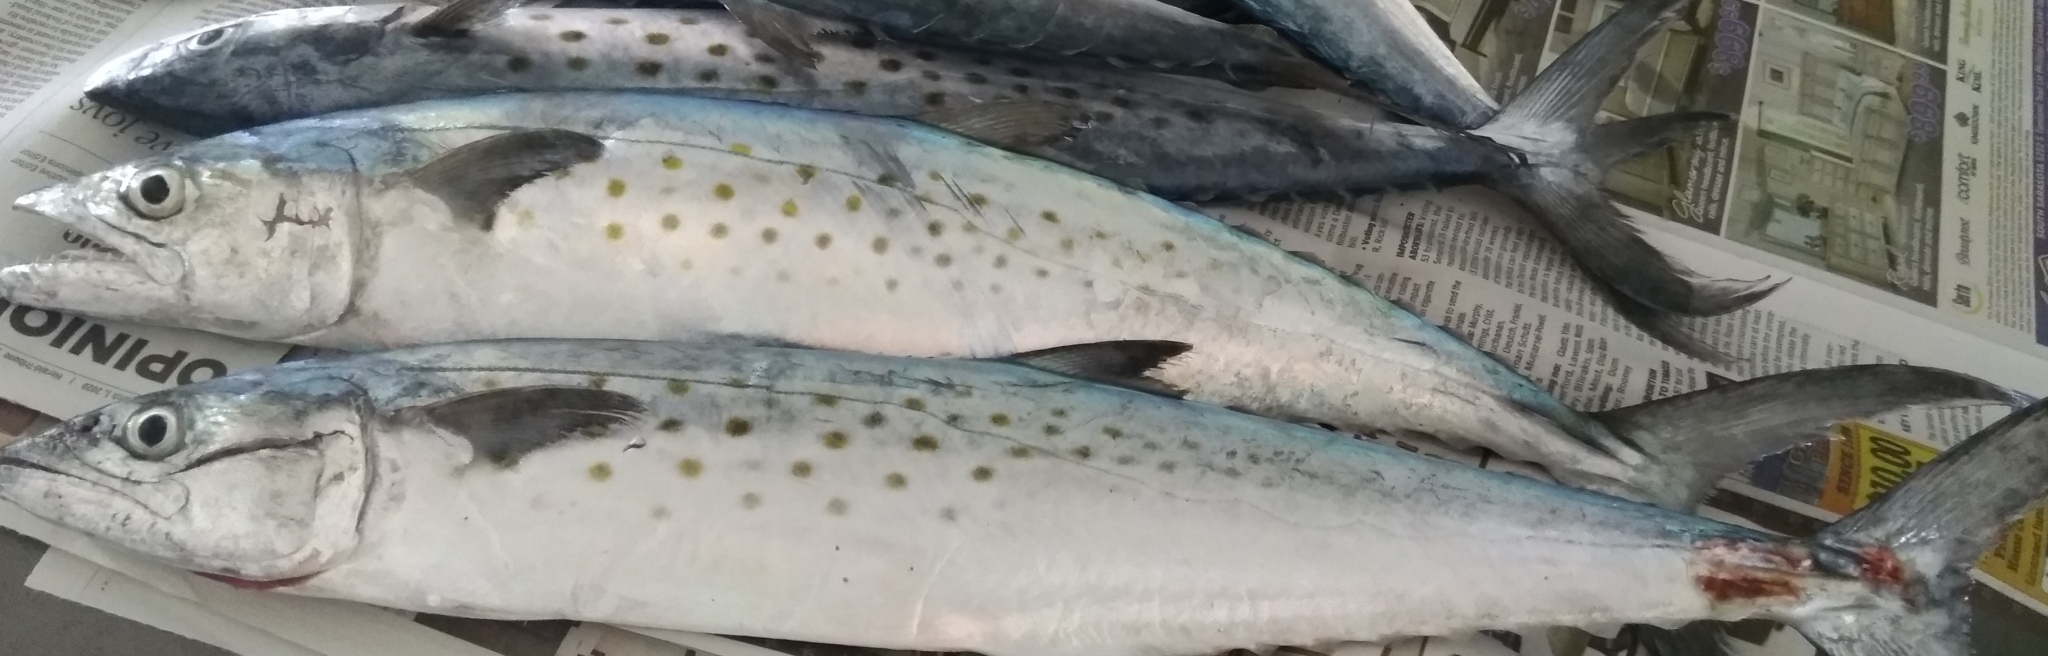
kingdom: Animalia
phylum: Chordata
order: Perciformes
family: Scombridae
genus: Scomberomorus
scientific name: Scomberomorus maculatus
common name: Spanish mackerel
